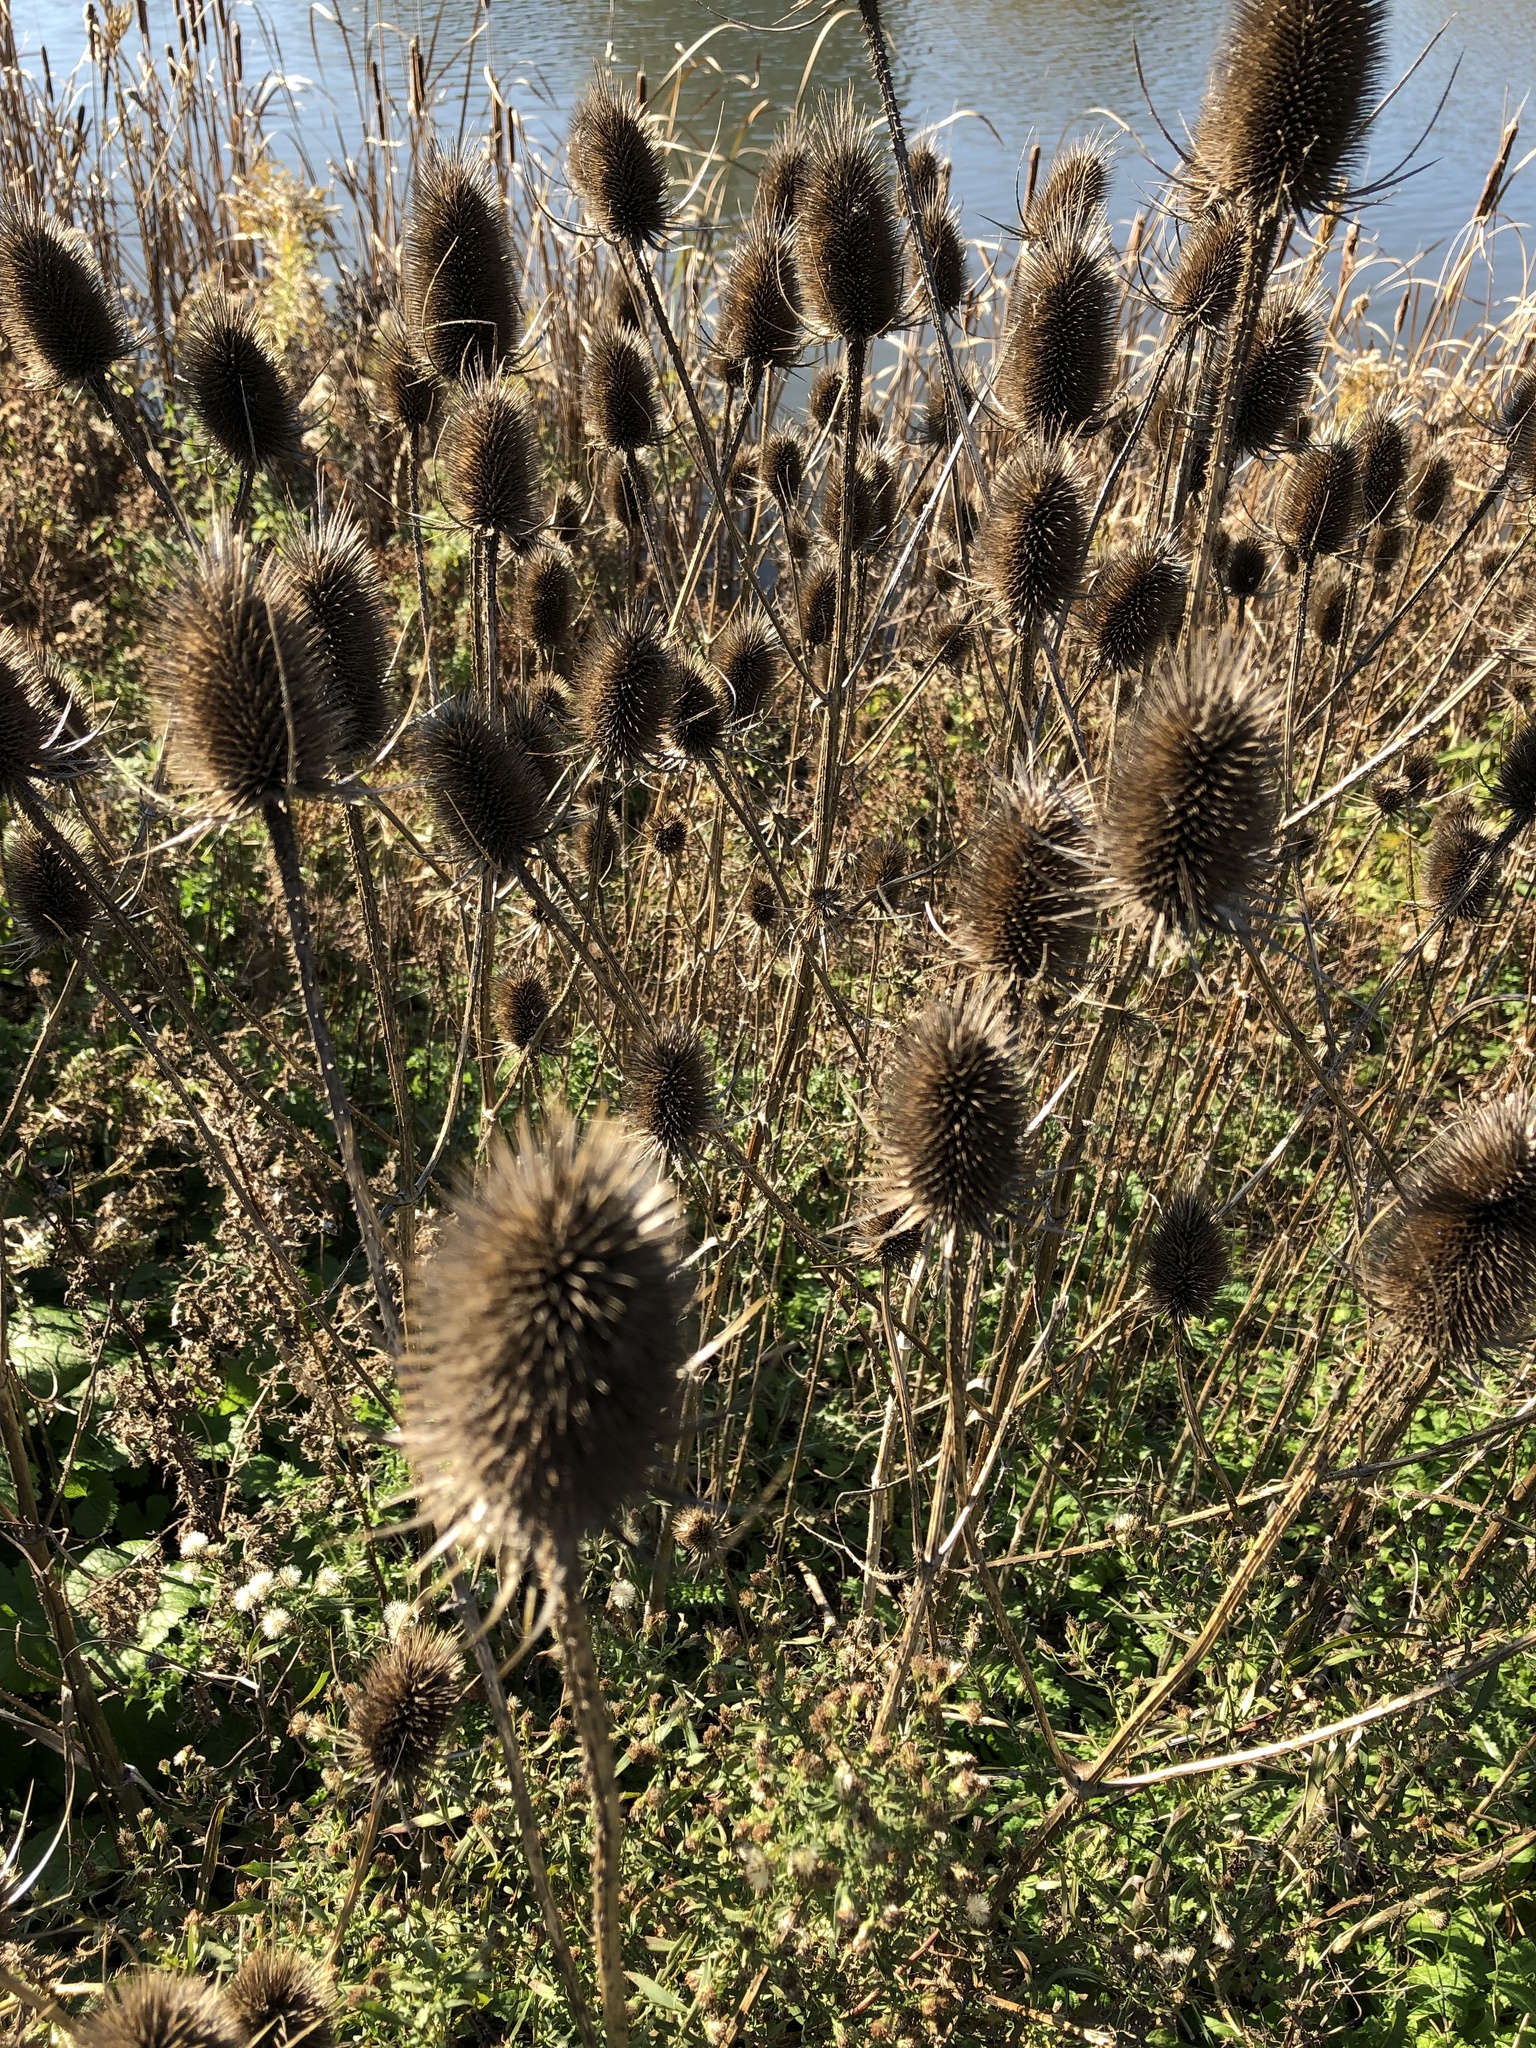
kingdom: Plantae
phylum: Tracheophyta
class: Magnoliopsida
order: Dipsacales
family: Caprifoliaceae
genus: Dipsacus
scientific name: Dipsacus fullonum
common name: Teasel
